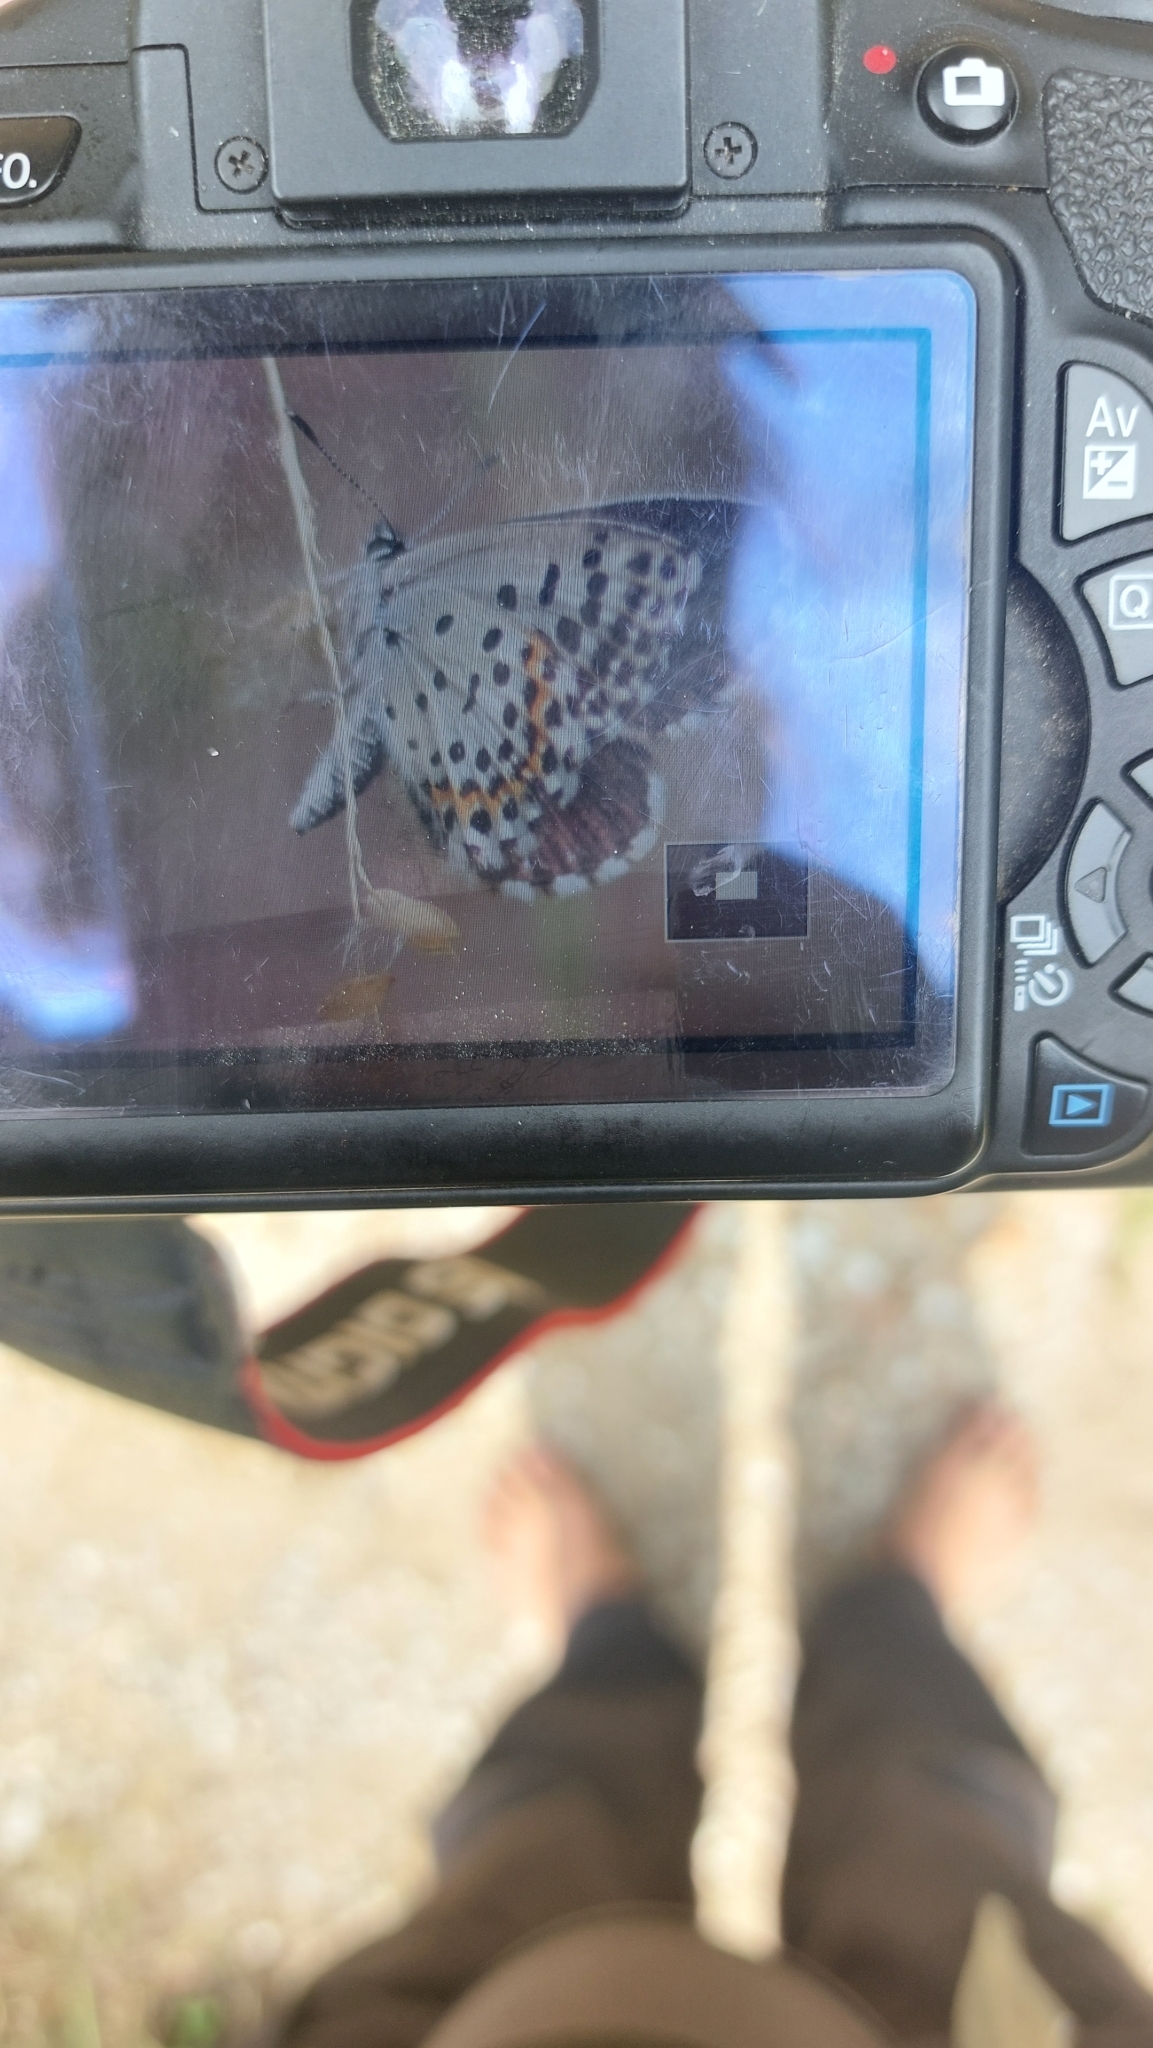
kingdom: Animalia
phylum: Arthropoda
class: Insecta
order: Lepidoptera
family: Lycaenidae
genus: Scolitantides
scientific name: Scolitantides orion
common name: Chequered blue
